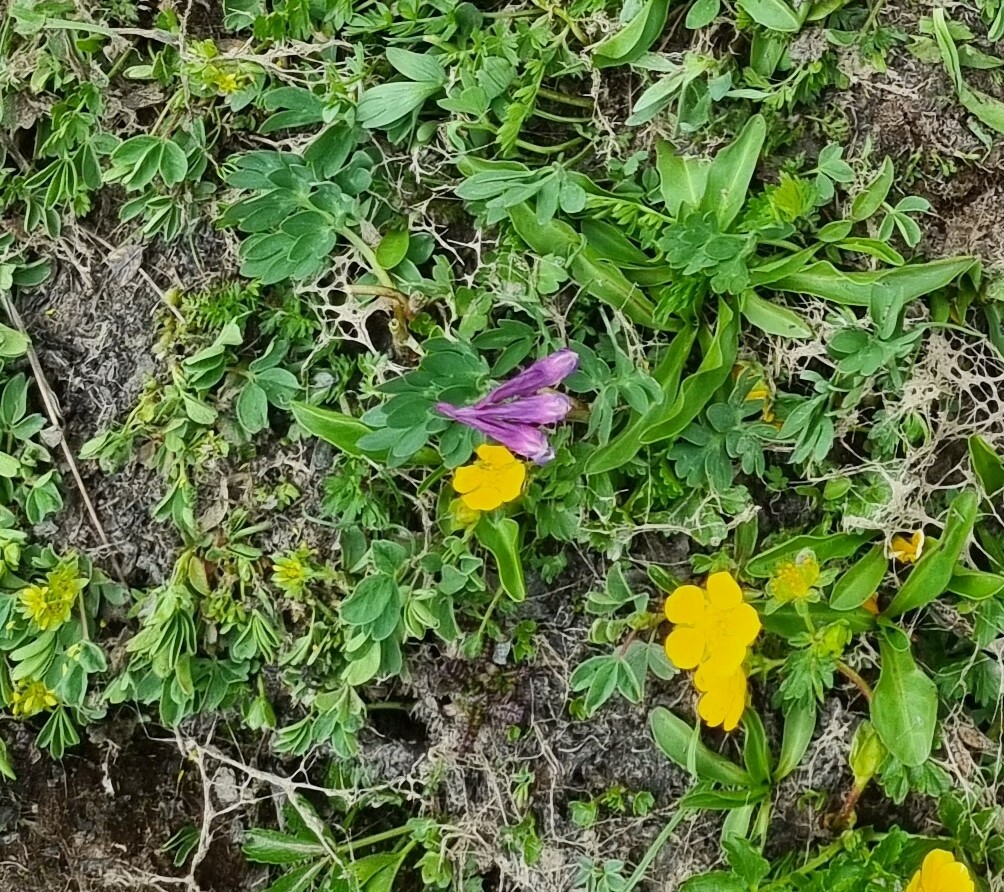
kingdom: Plantae
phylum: Tracheophyta
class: Magnoliopsida
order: Ranunculales
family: Papaveraceae
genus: Corydalis
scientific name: Corydalis conorhiza
